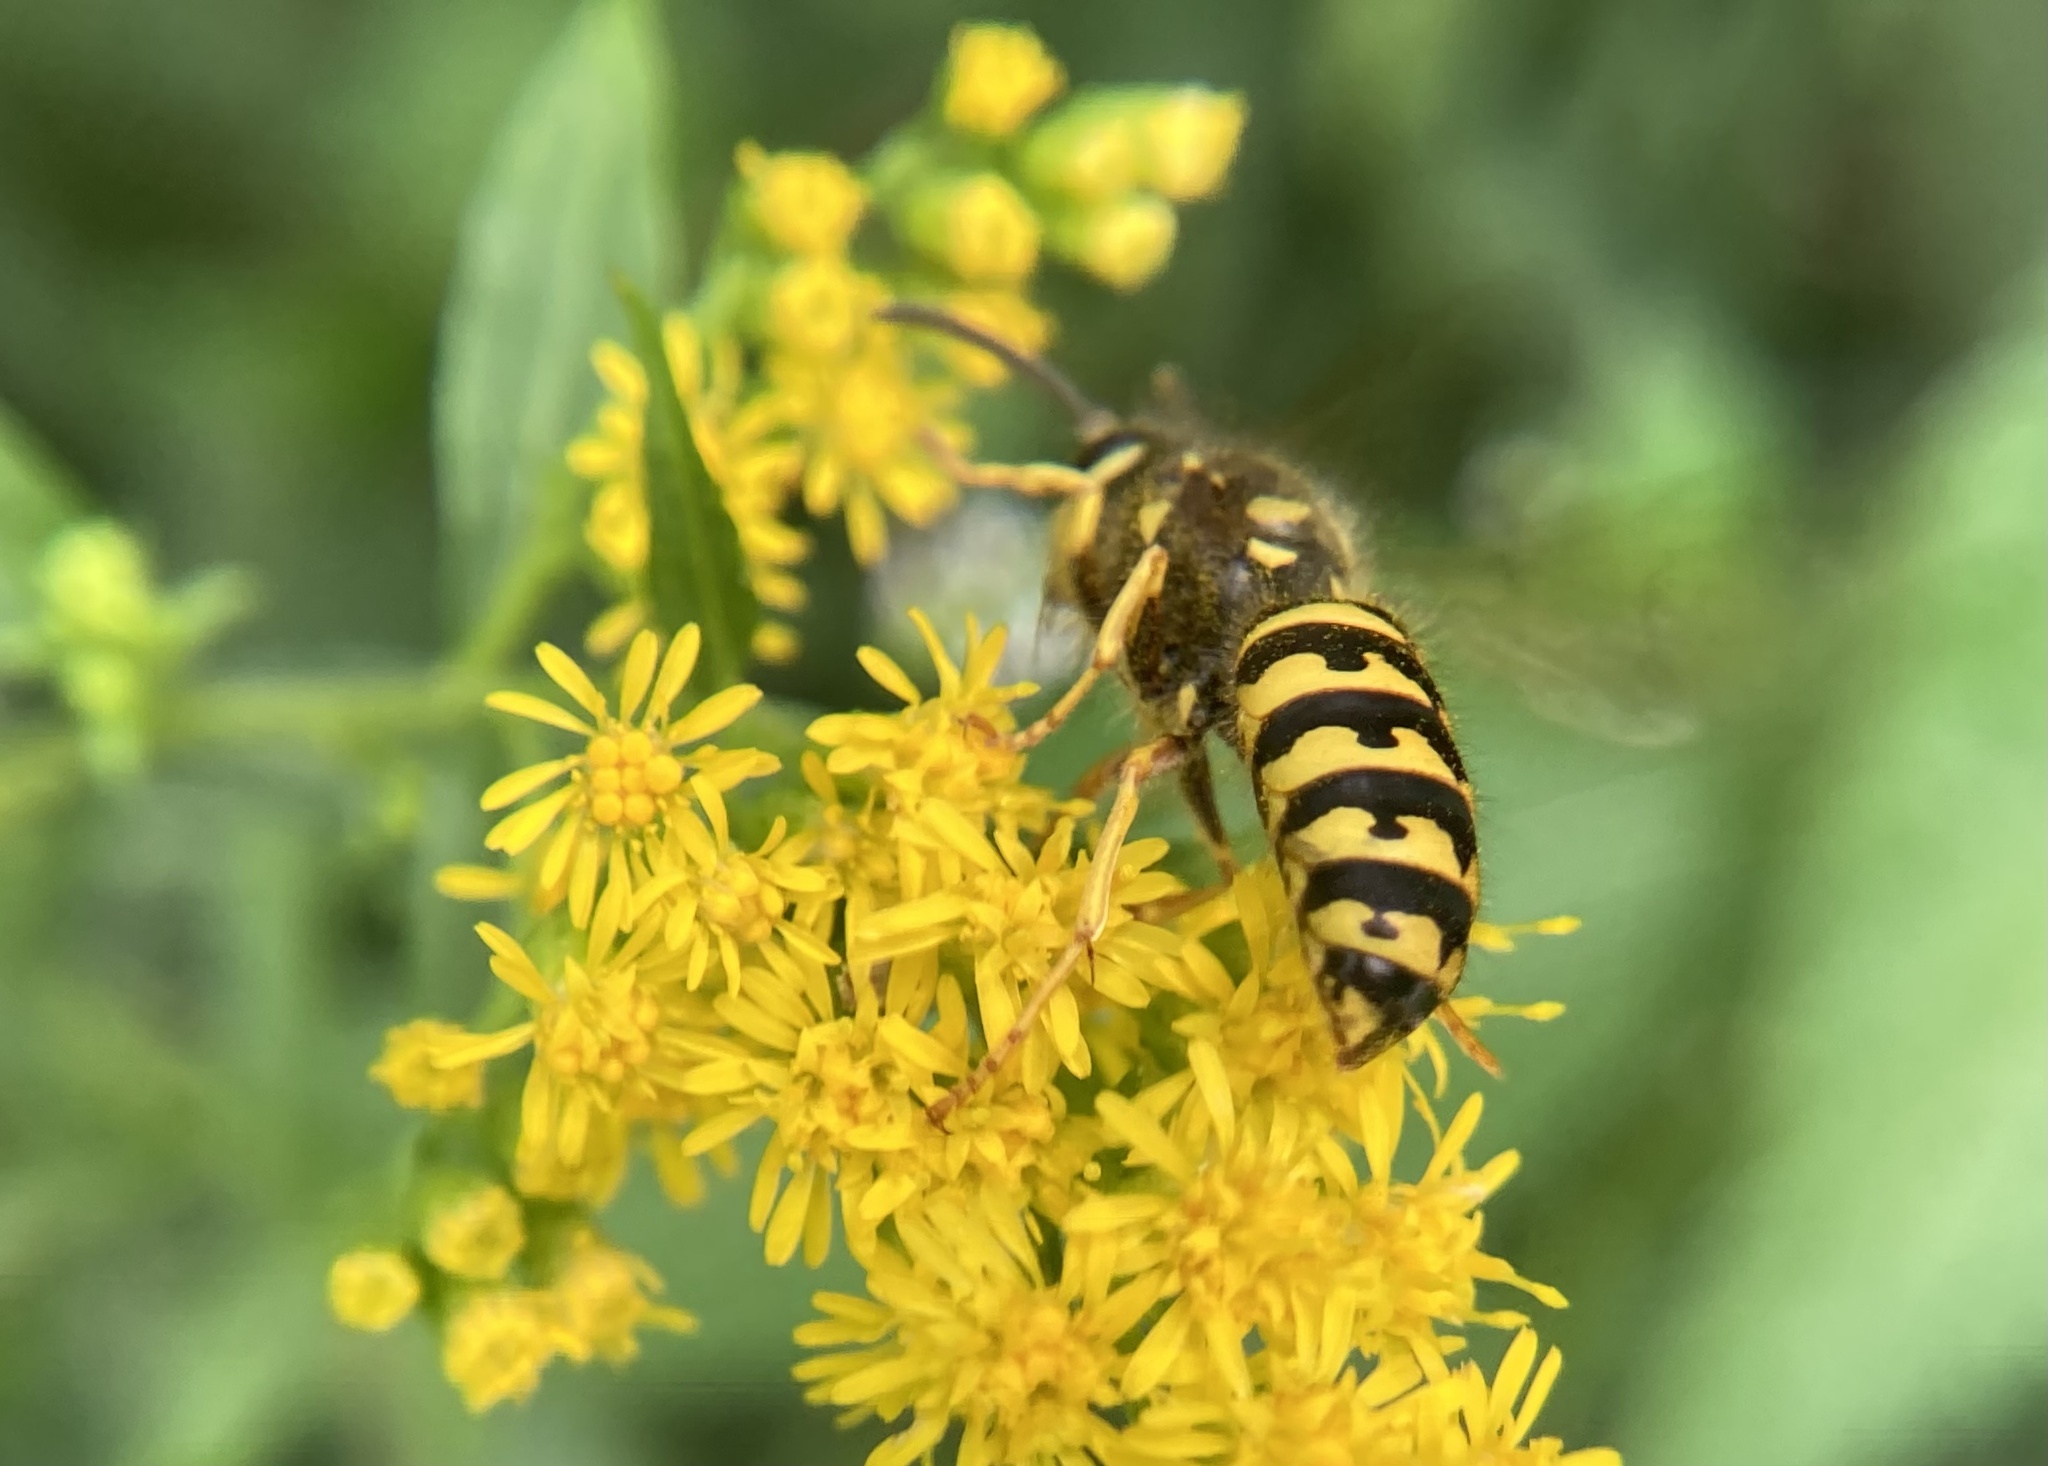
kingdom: Animalia
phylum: Arthropoda
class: Insecta
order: Hymenoptera
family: Vespidae
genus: Dolichovespula
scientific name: Dolichovespula arenaria
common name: Aerial yellowjacket
